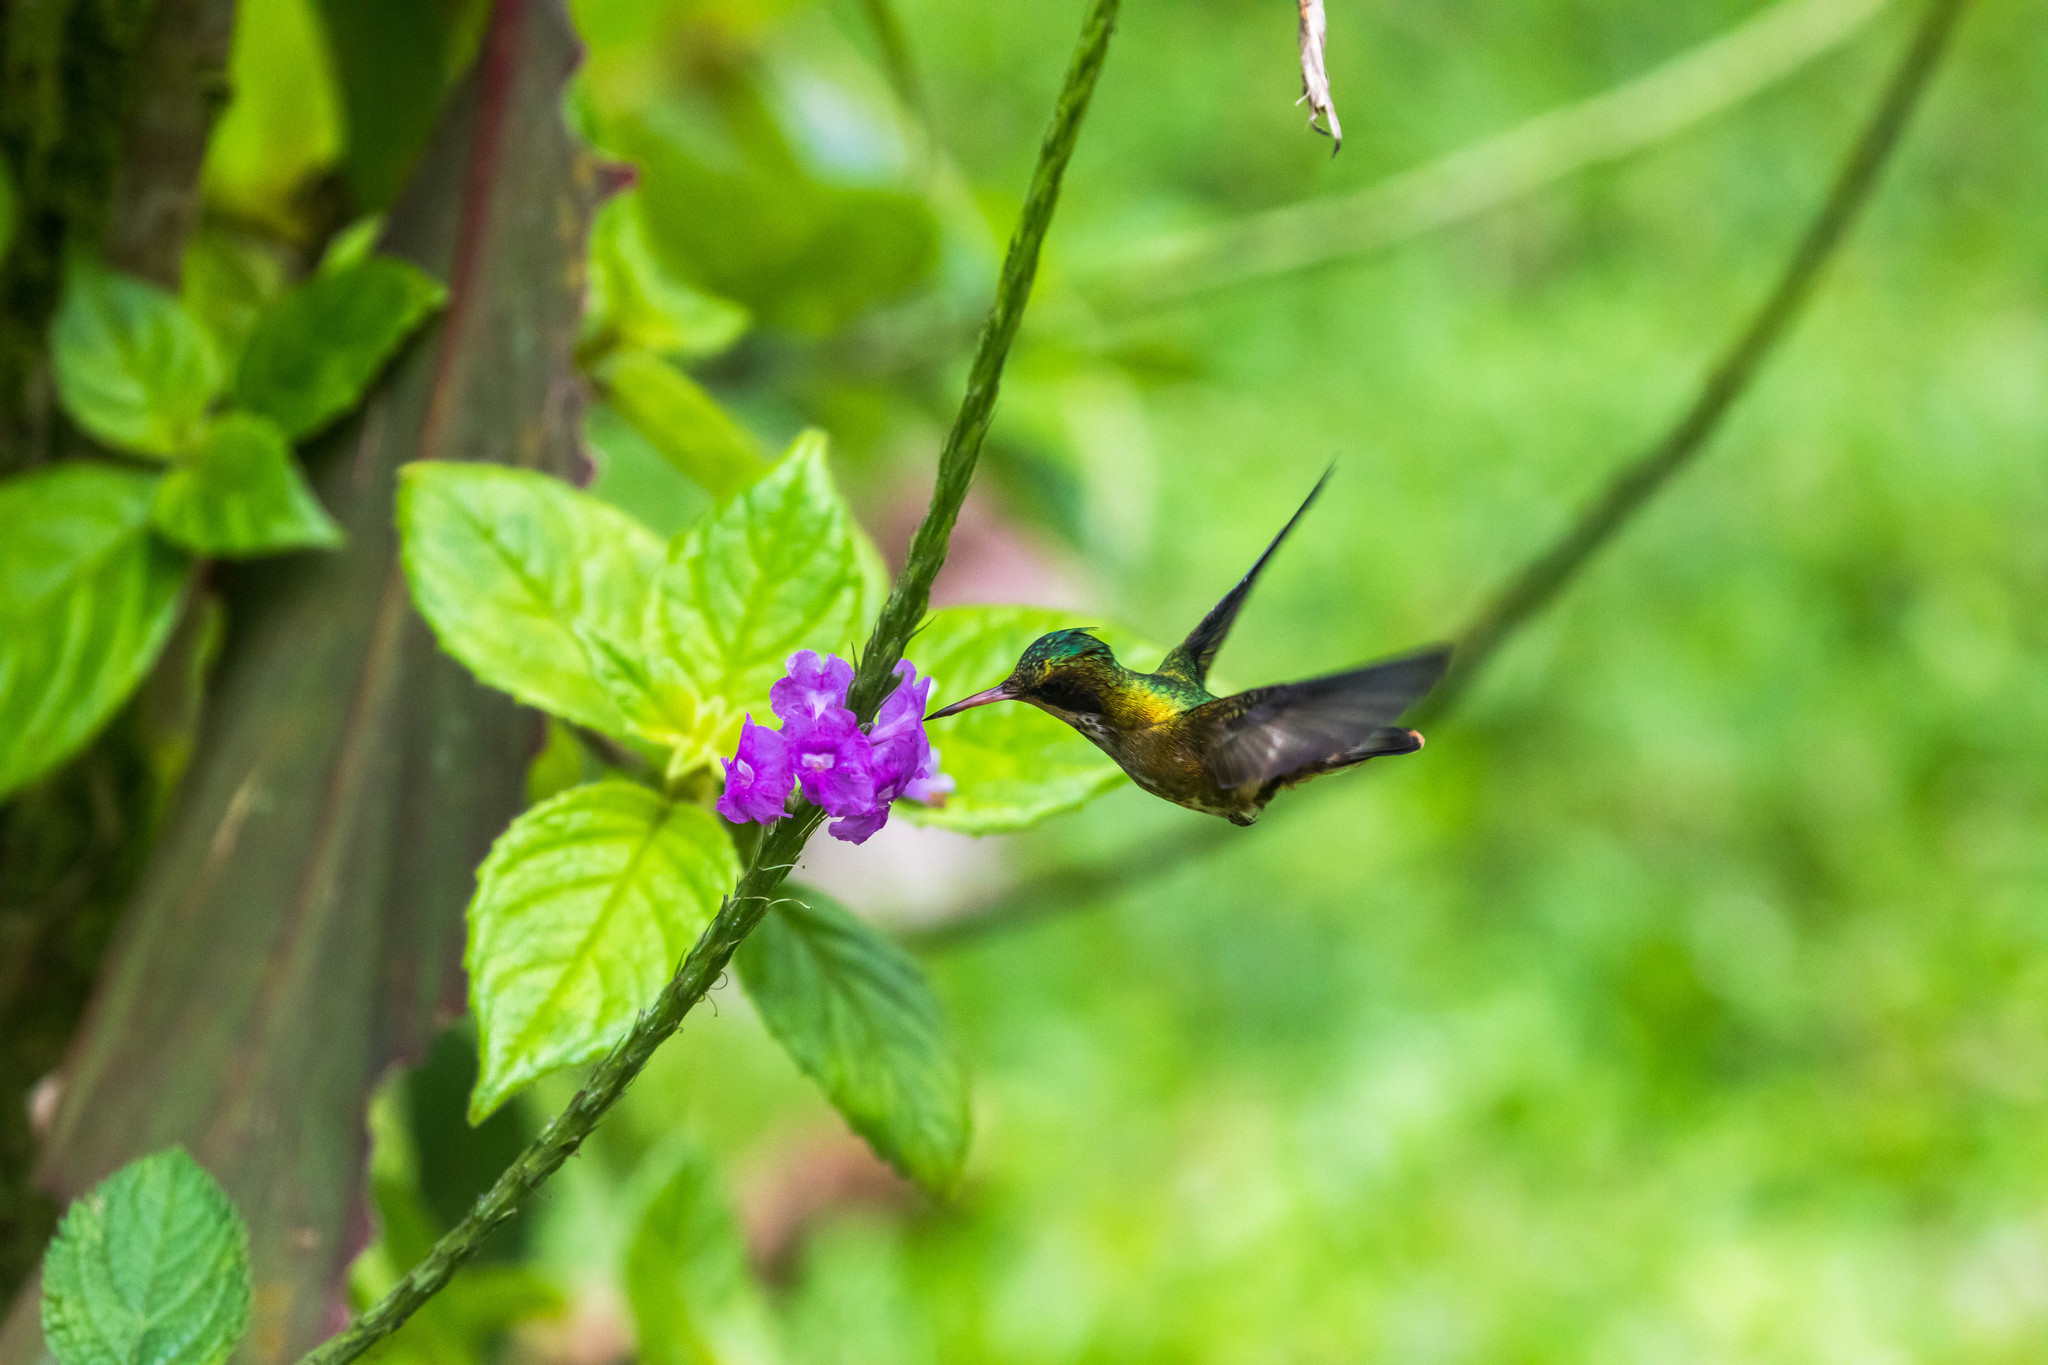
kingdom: Animalia
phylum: Chordata
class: Aves
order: Apodiformes
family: Trochilidae
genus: Lophornis
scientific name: Lophornis helenae
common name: Black-crested coquette
